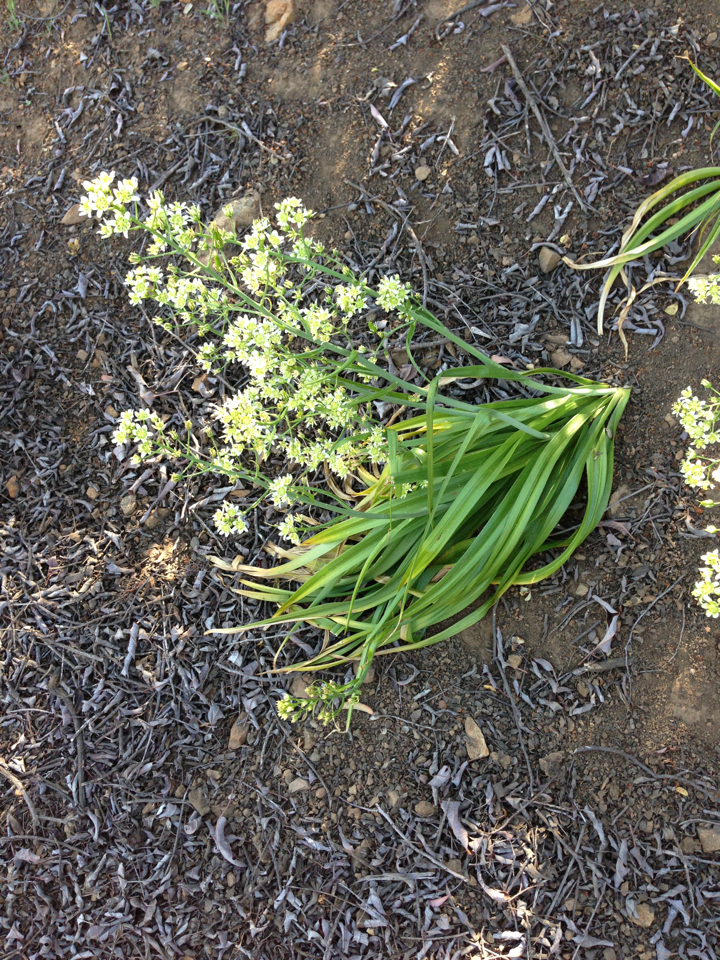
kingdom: Plantae
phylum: Tracheophyta
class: Liliopsida
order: Liliales
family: Melanthiaceae
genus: Toxicoscordion
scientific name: Toxicoscordion fremontii
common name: Fremont's death camas
